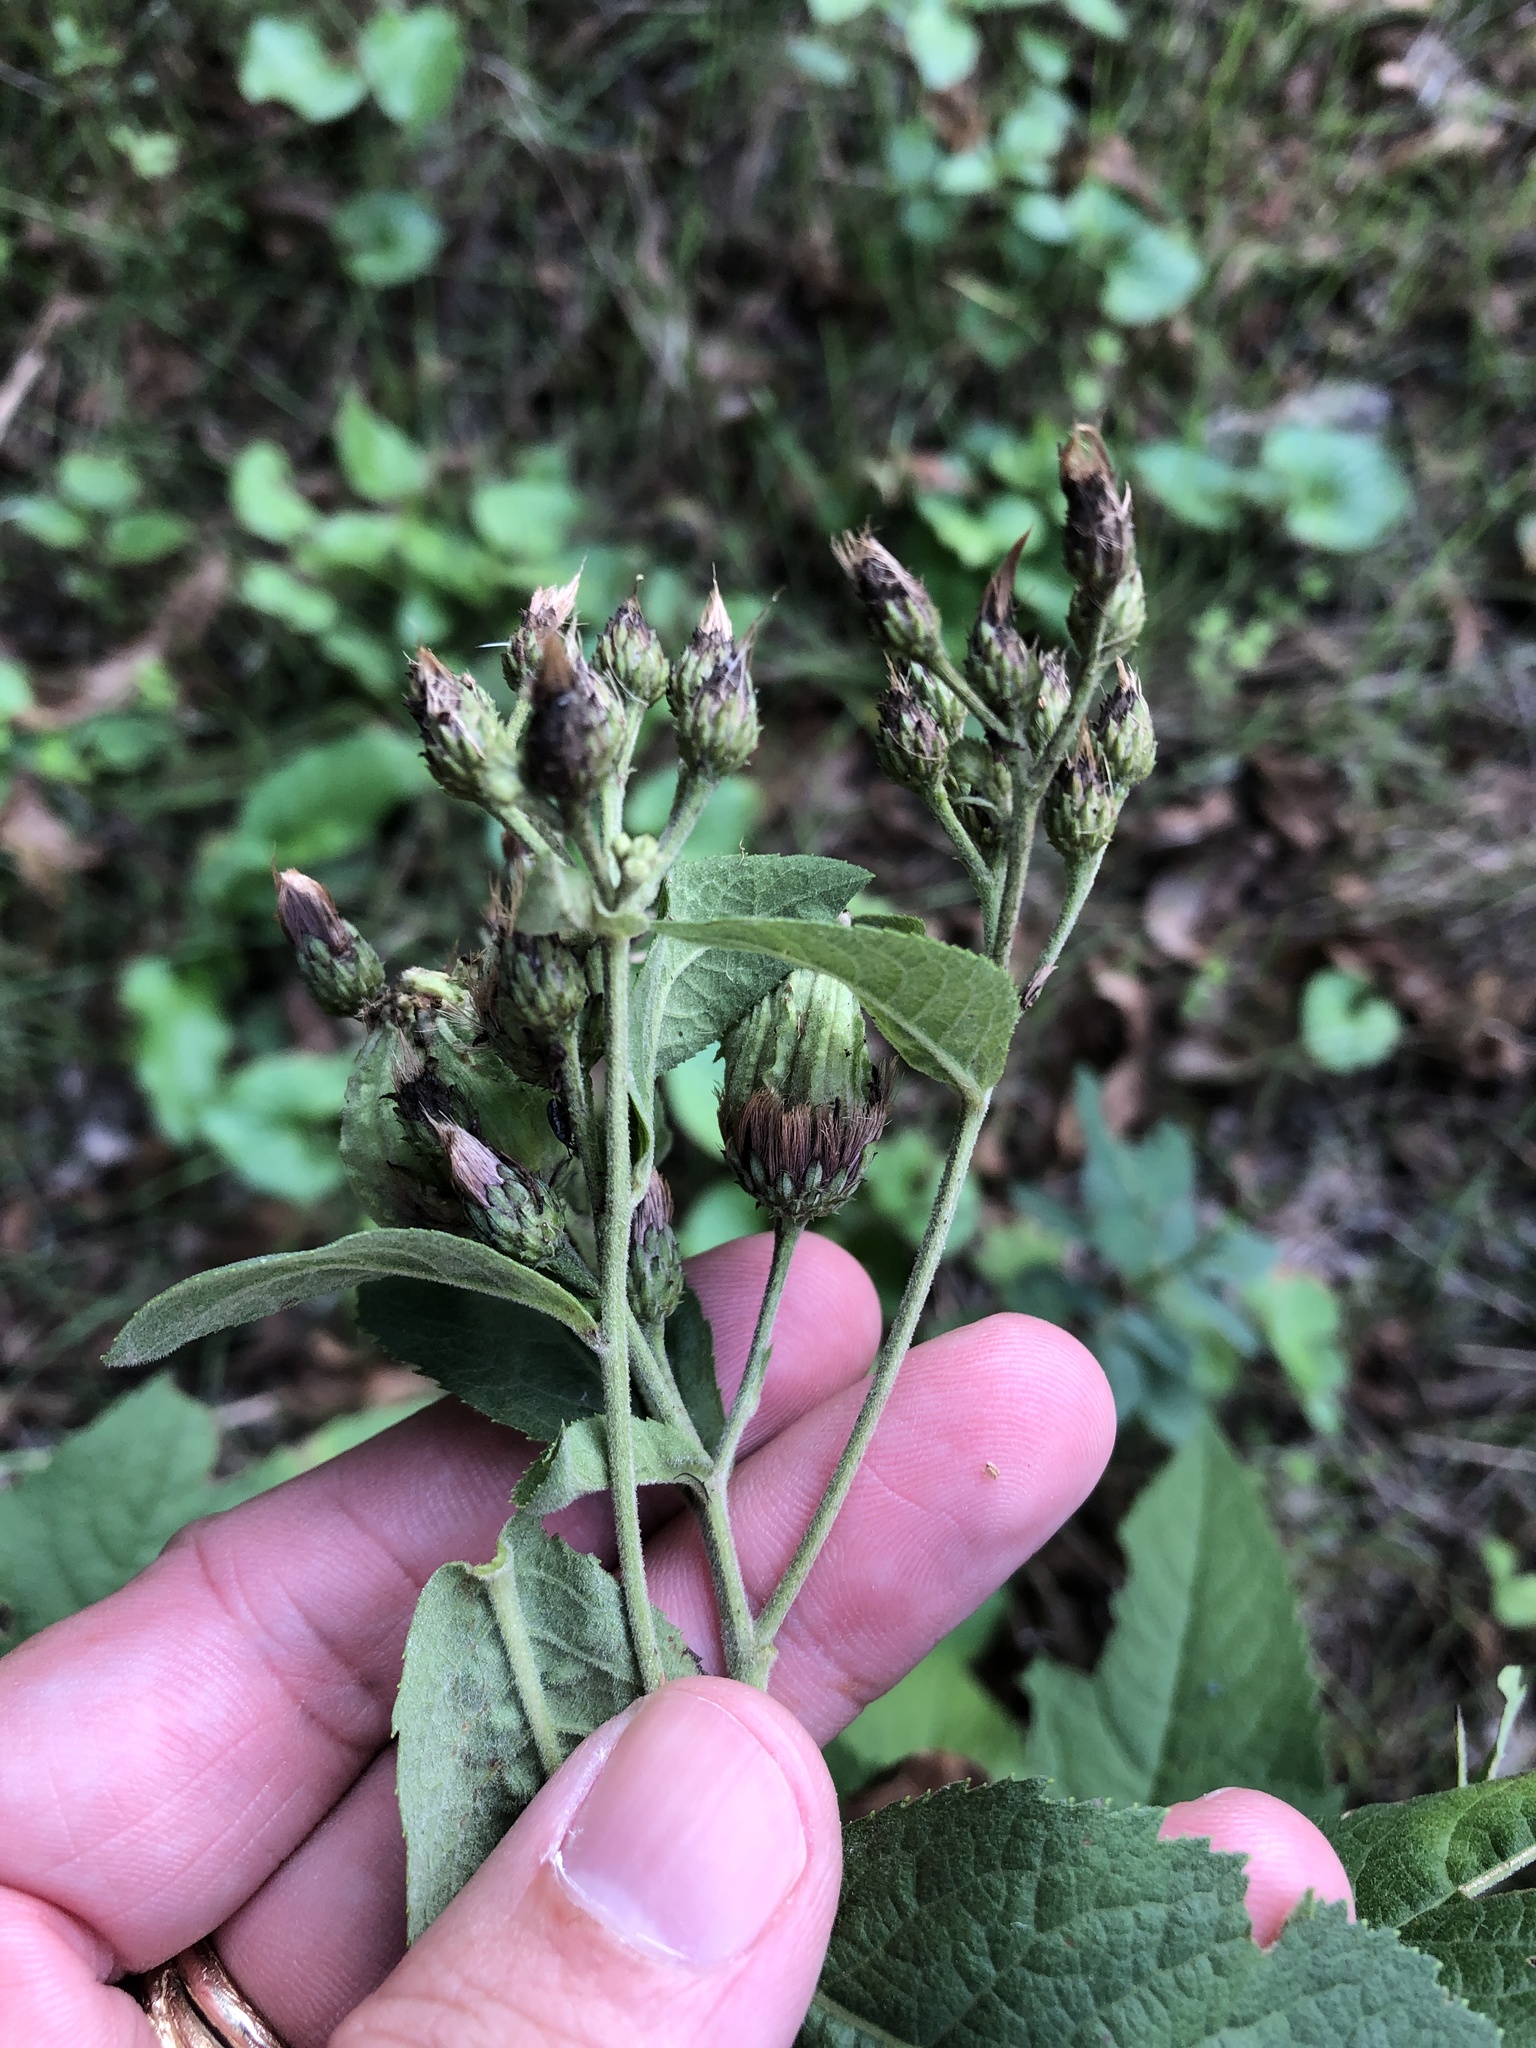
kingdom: Plantae
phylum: Tracheophyta
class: Magnoliopsida
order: Asterales
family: Asteraceae
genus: Vernonia
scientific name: Vernonia baldwinii
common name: Western ironweed
